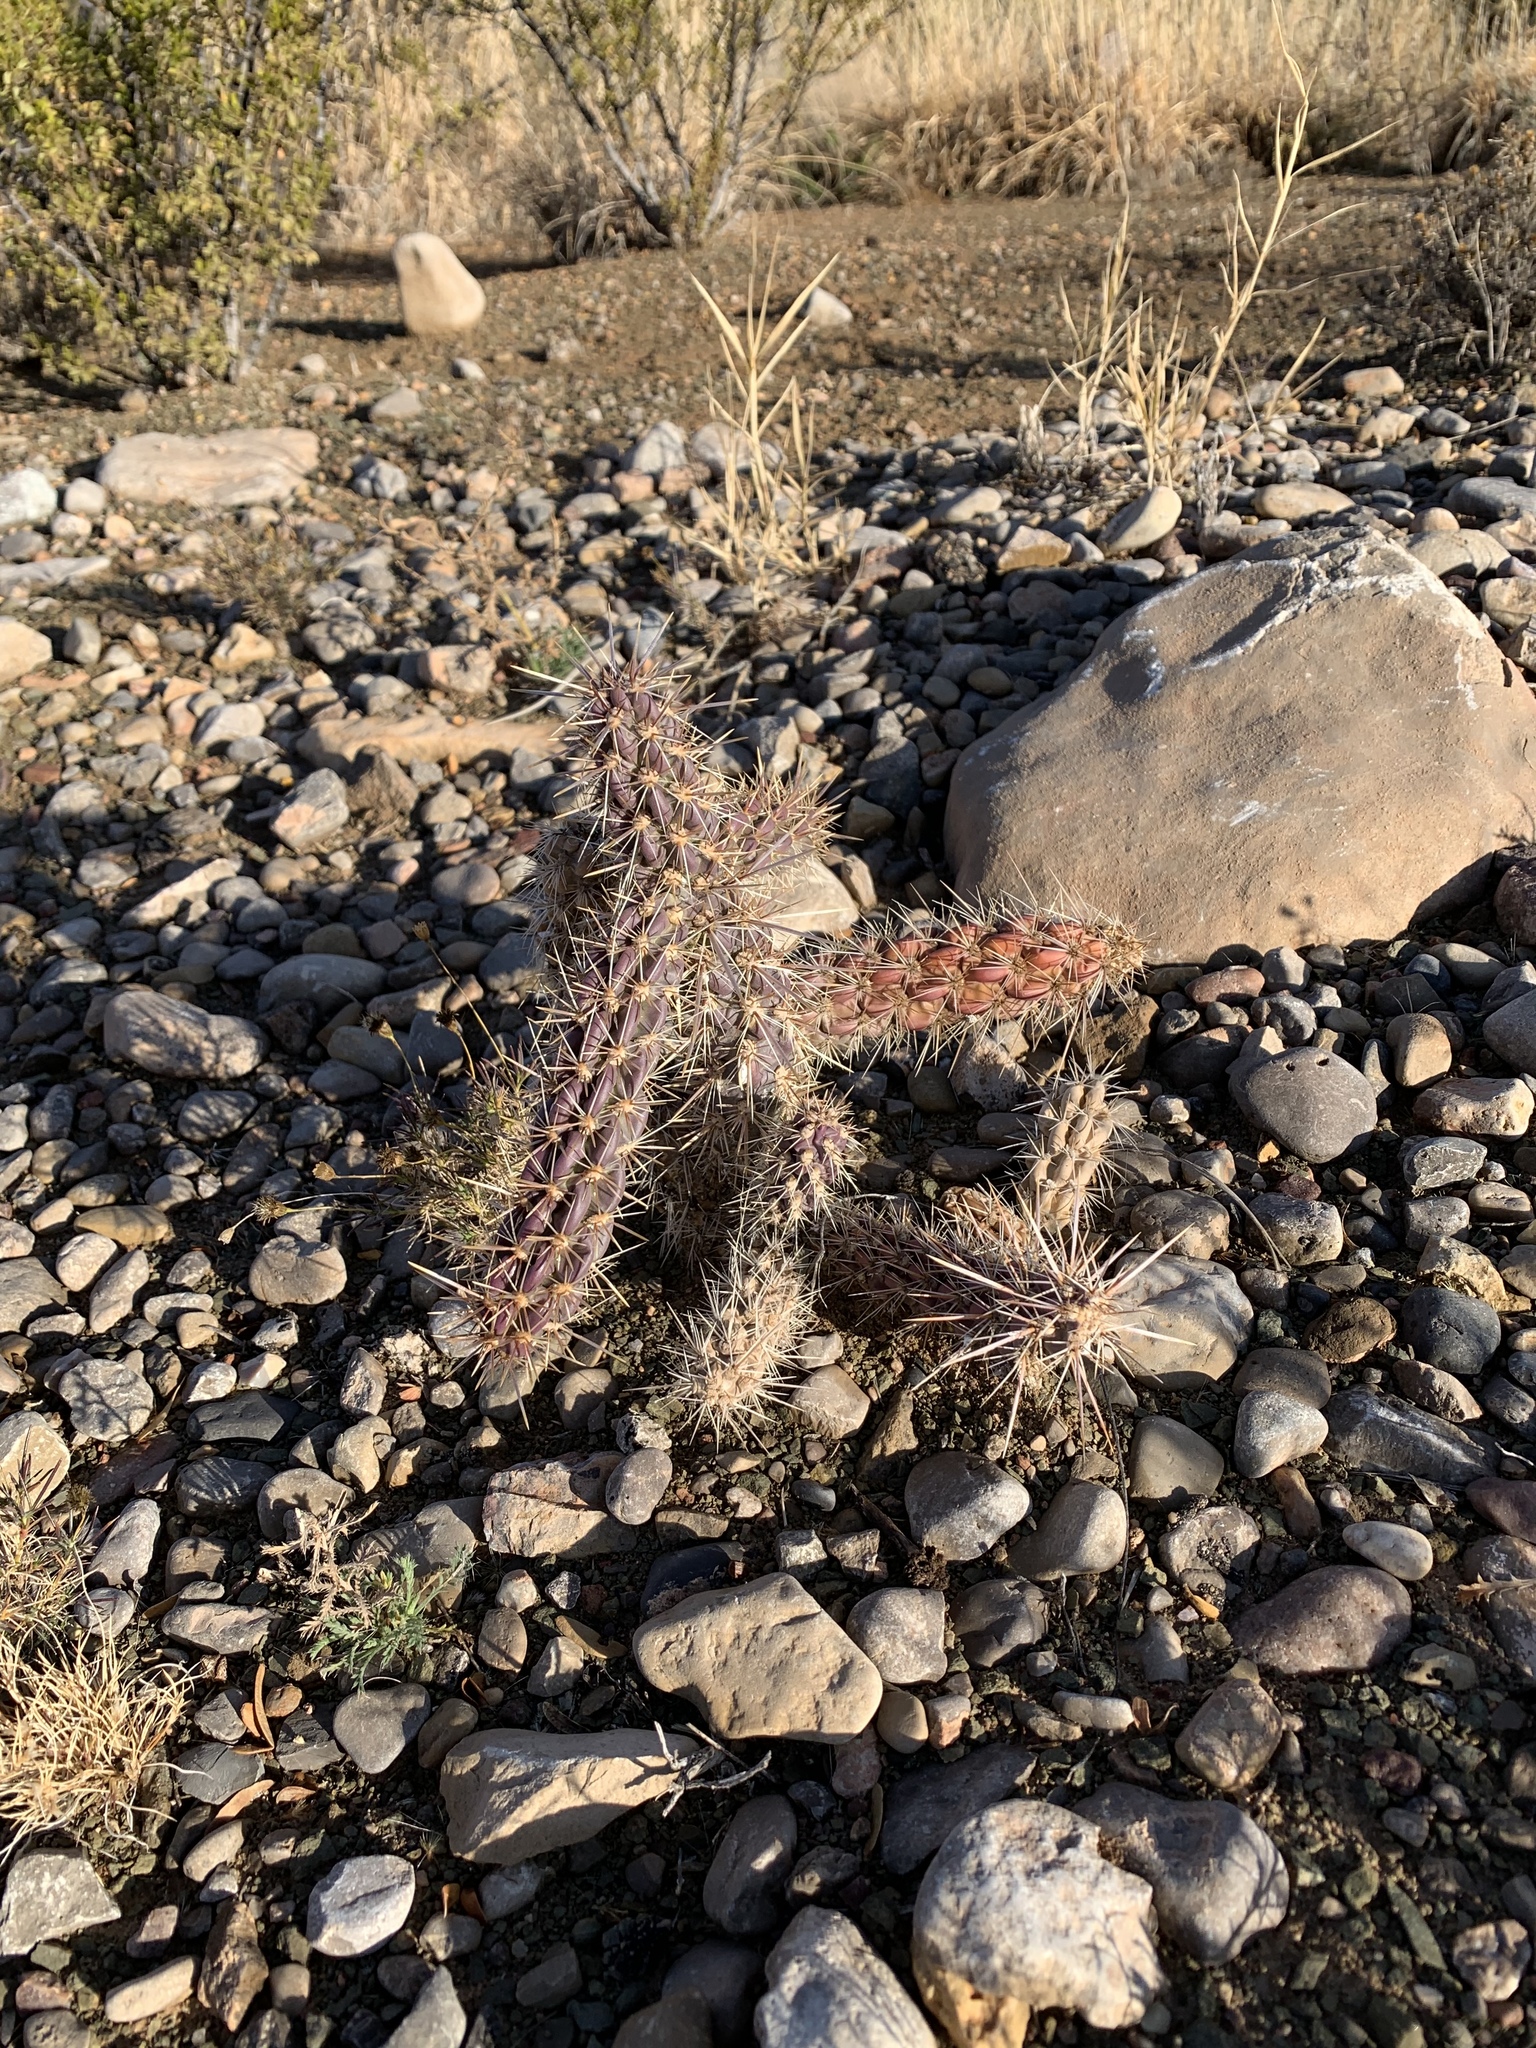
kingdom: Plantae
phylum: Tracheophyta
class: Magnoliopsida
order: Caryophyllales
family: Cactaceae
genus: Cylindropuntia
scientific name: Cylindropuntia imbricata
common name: Candelabrum cactus
